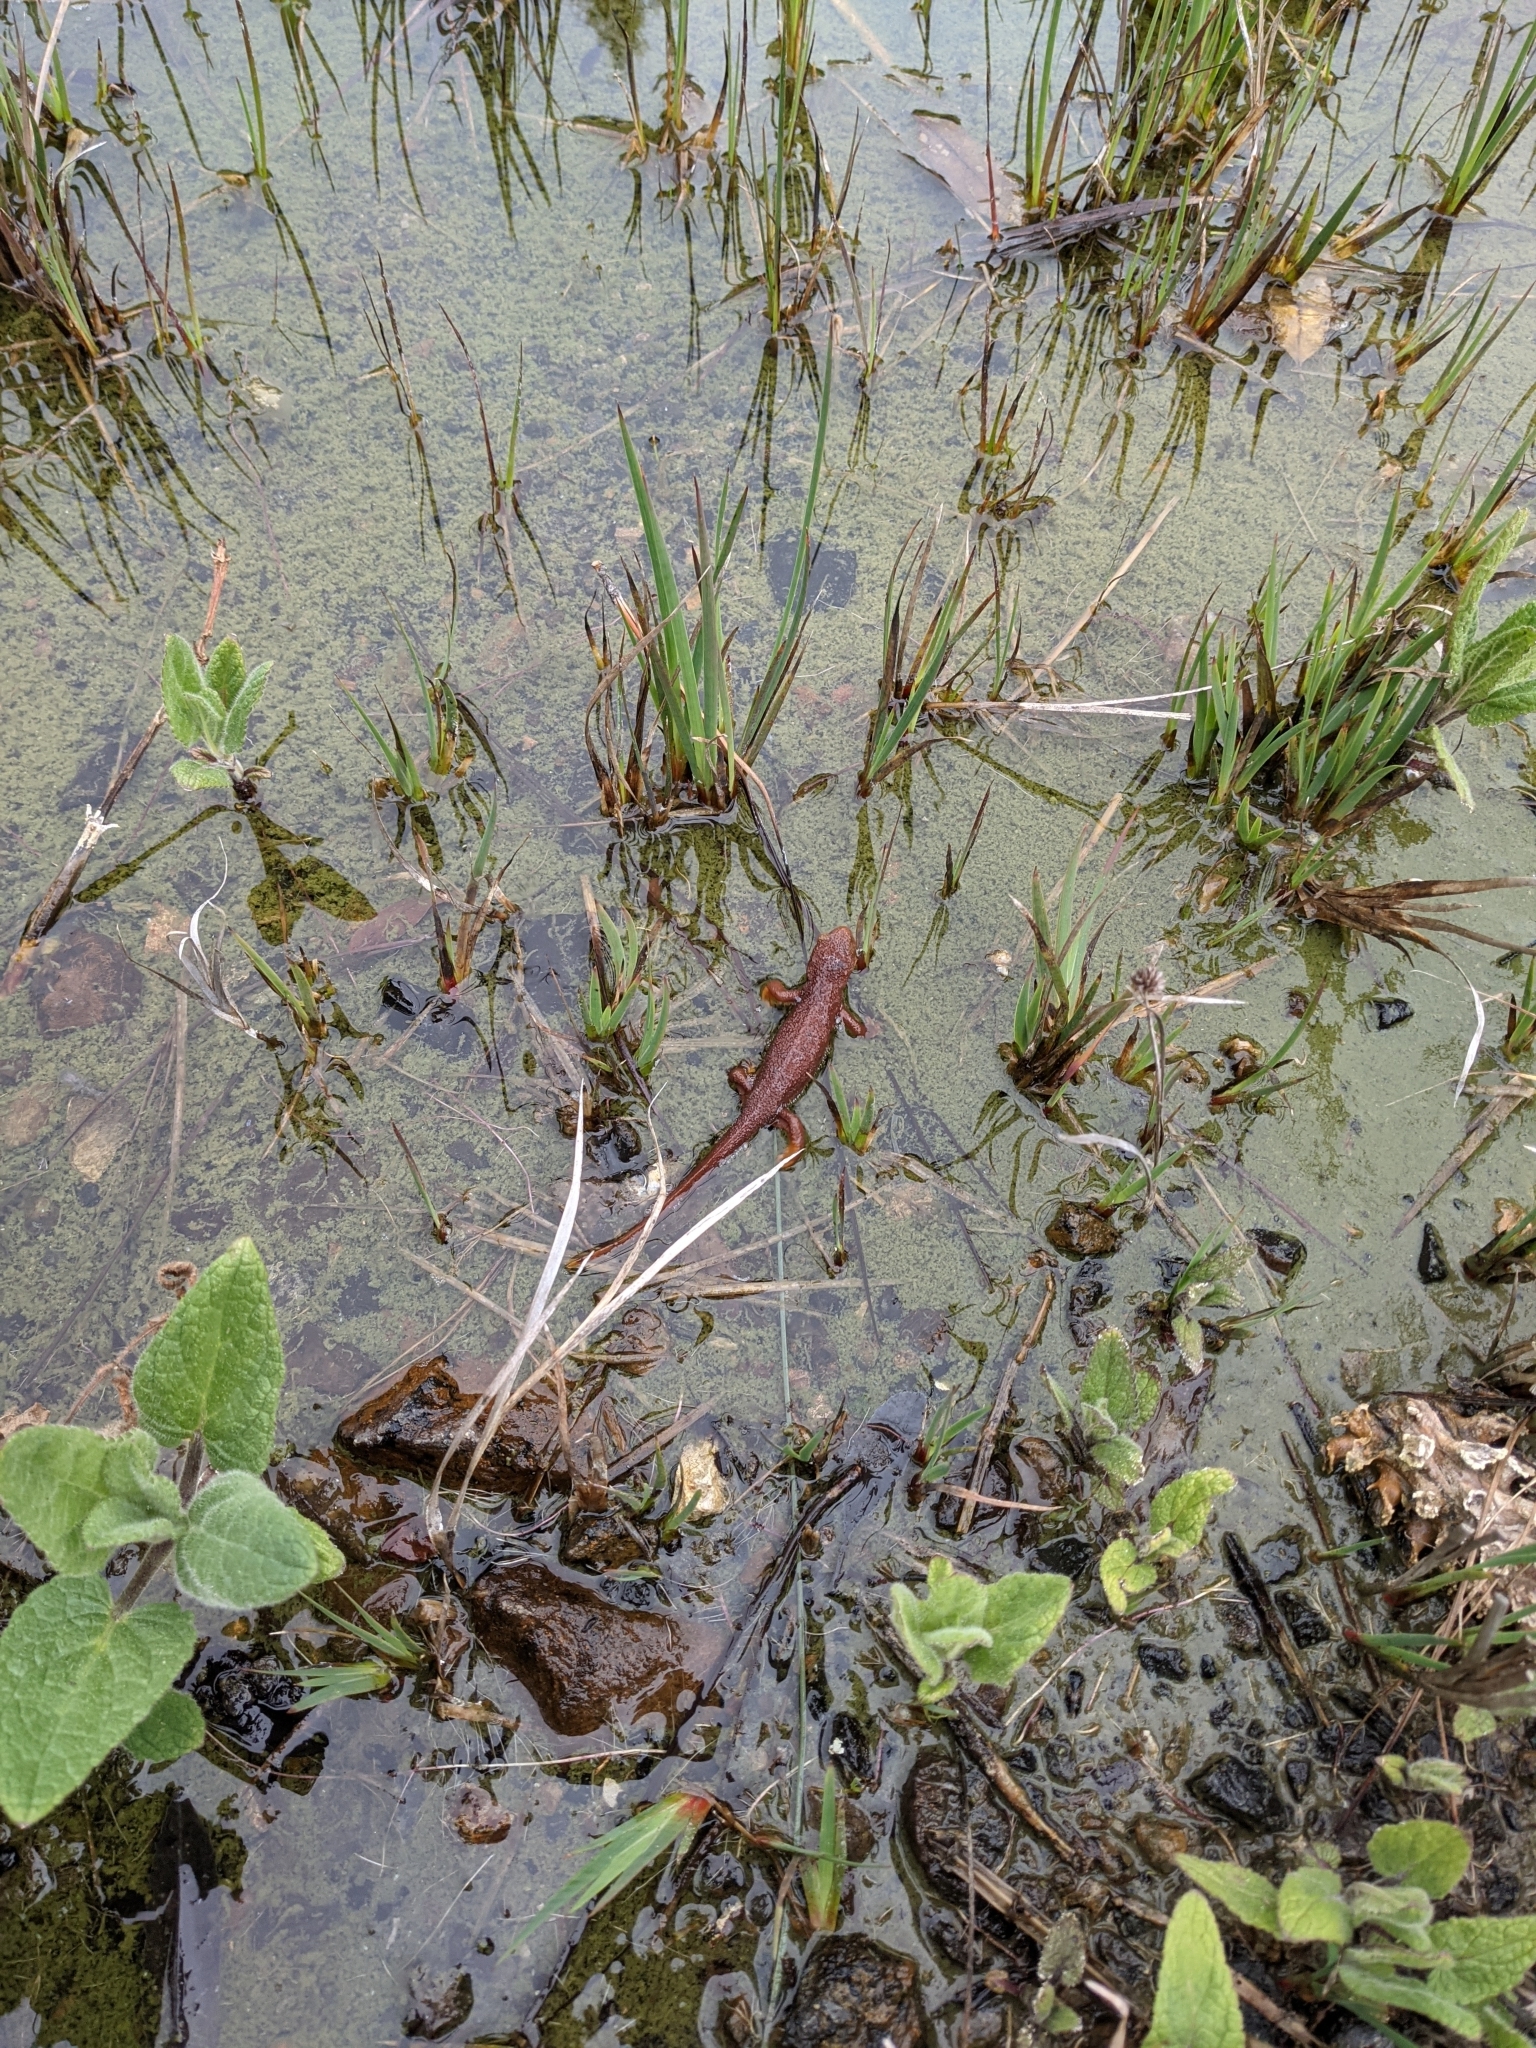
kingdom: Animalia
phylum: Chordata
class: Amphibia
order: Caudata
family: Salamandridae
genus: Taricha
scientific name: Taricha torosa
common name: California newt
